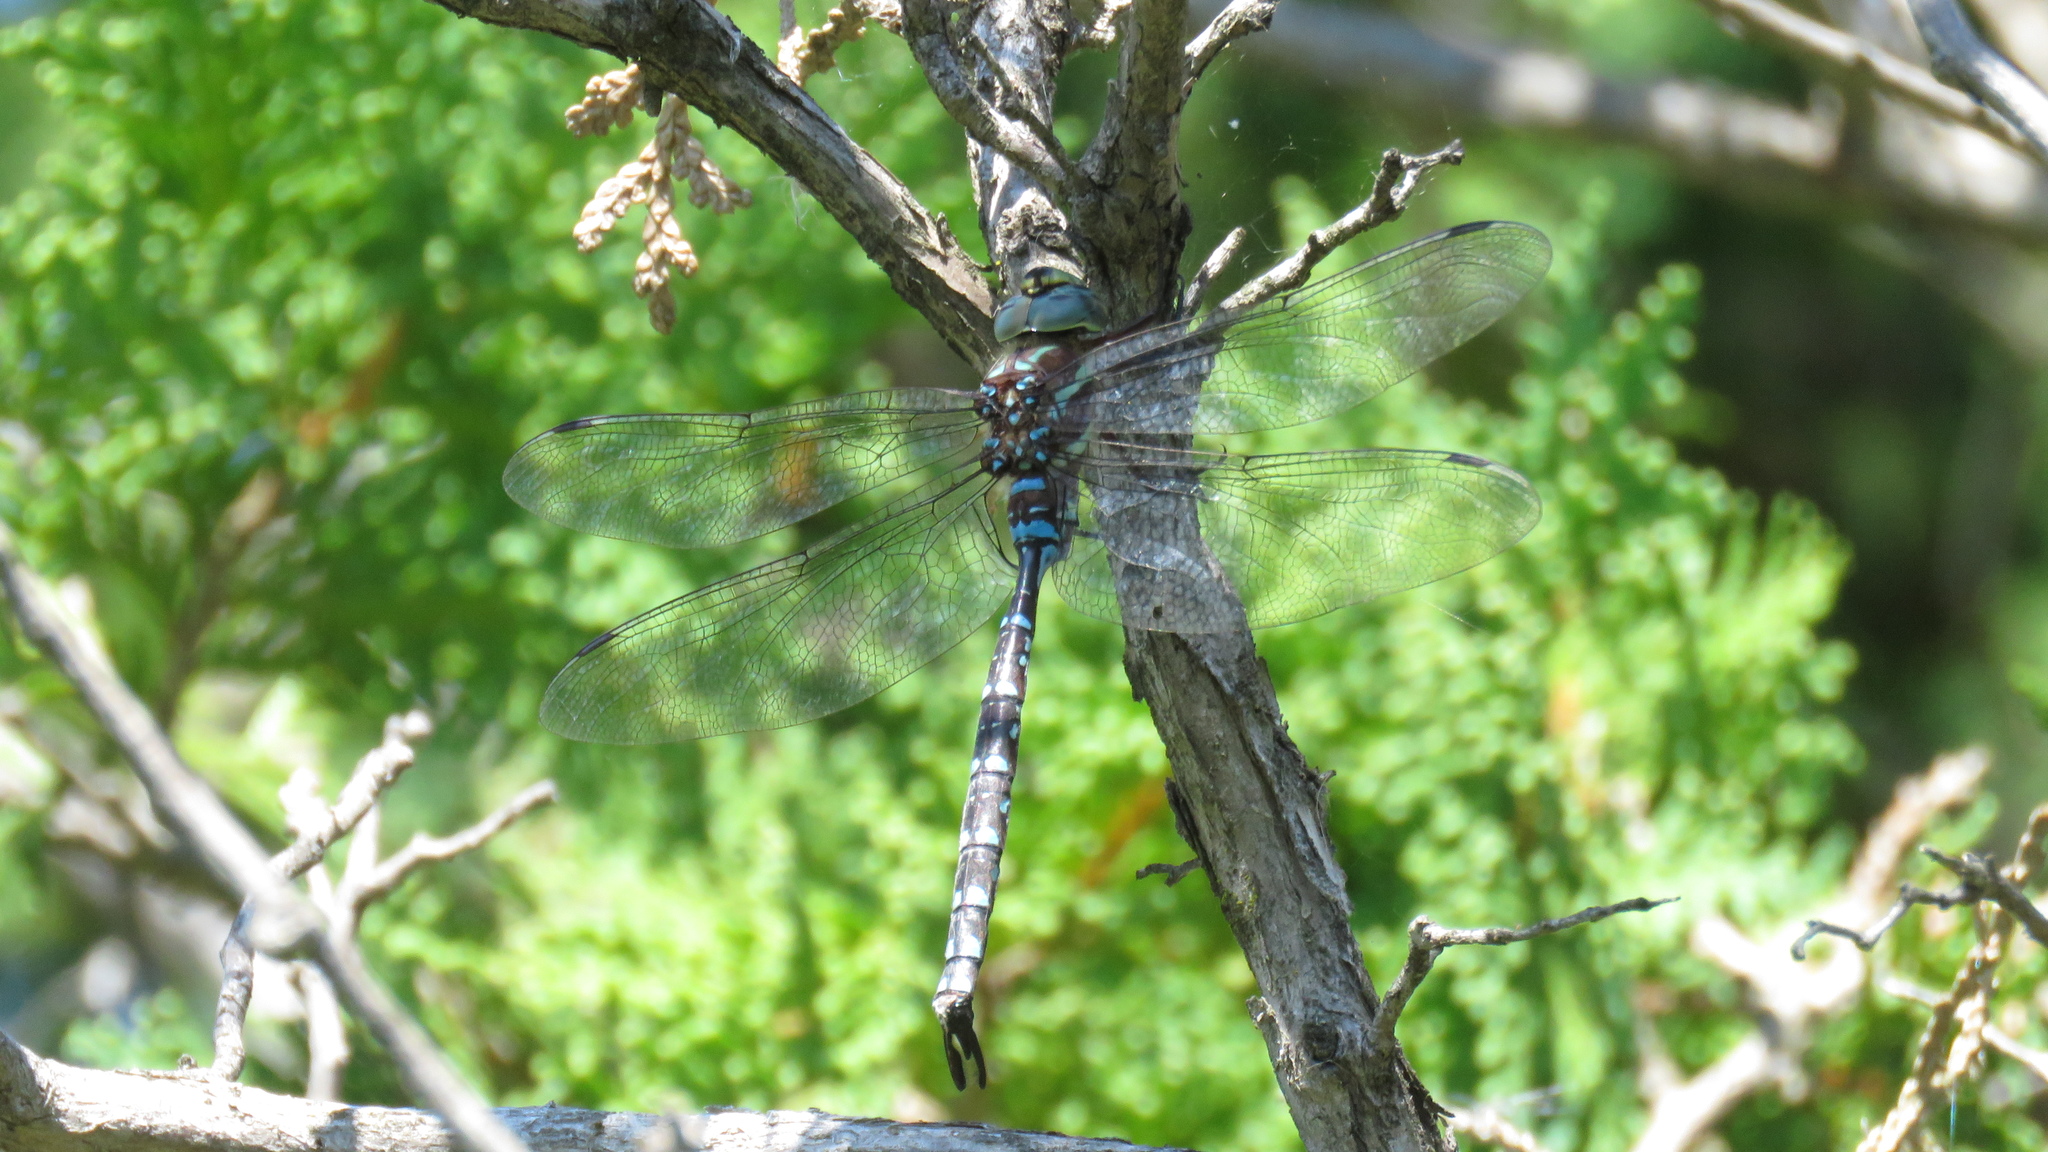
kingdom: Animalia
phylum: Arthropoda
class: Insecta
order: Odonata
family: Aeshnidae
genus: Aeshna
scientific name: Aeshna tuberculifera
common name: Aeschne à tubercules
